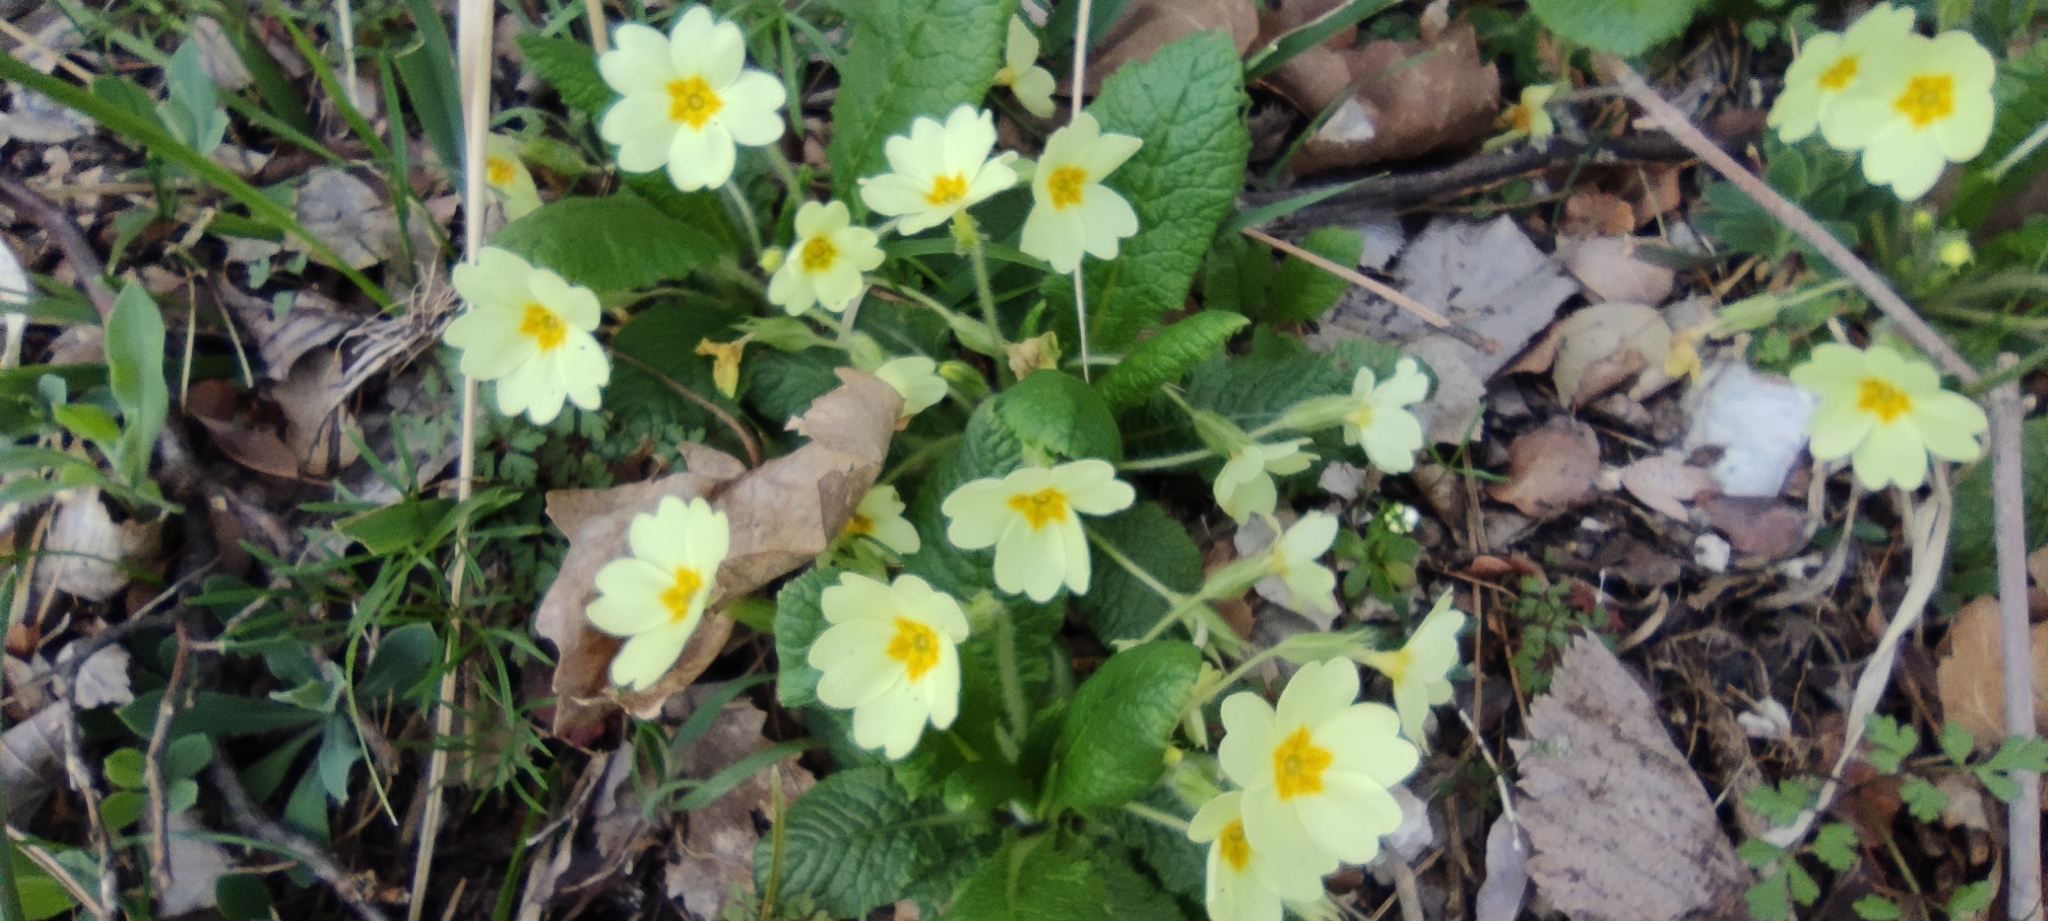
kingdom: Plantae
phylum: Tracheophyta
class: Magnoliopsida
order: Ericales
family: Primulaceae
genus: Primula
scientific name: Primula vulgaris
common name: Primrose
